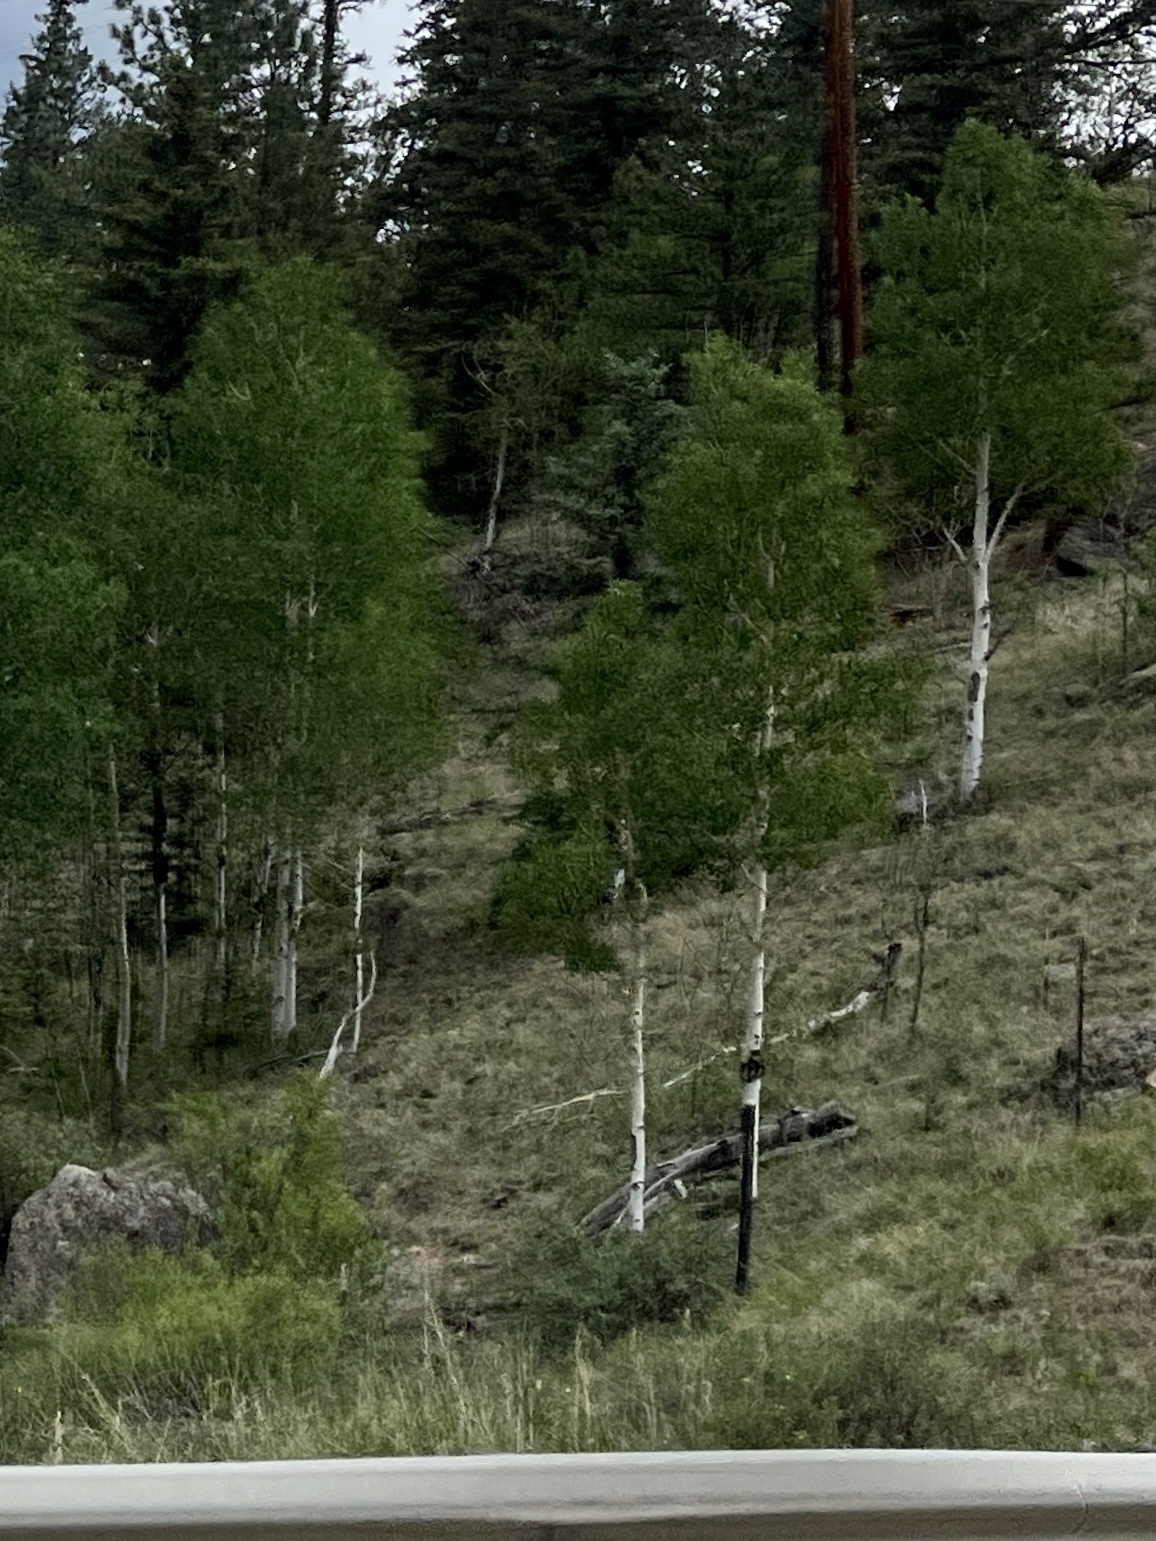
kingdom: Plantae
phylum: Tracheophyta
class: Magnoliopsida
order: Malpighiales
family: Salicaceae
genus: Populus
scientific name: Populus tremuloides
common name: Quaking aspen
